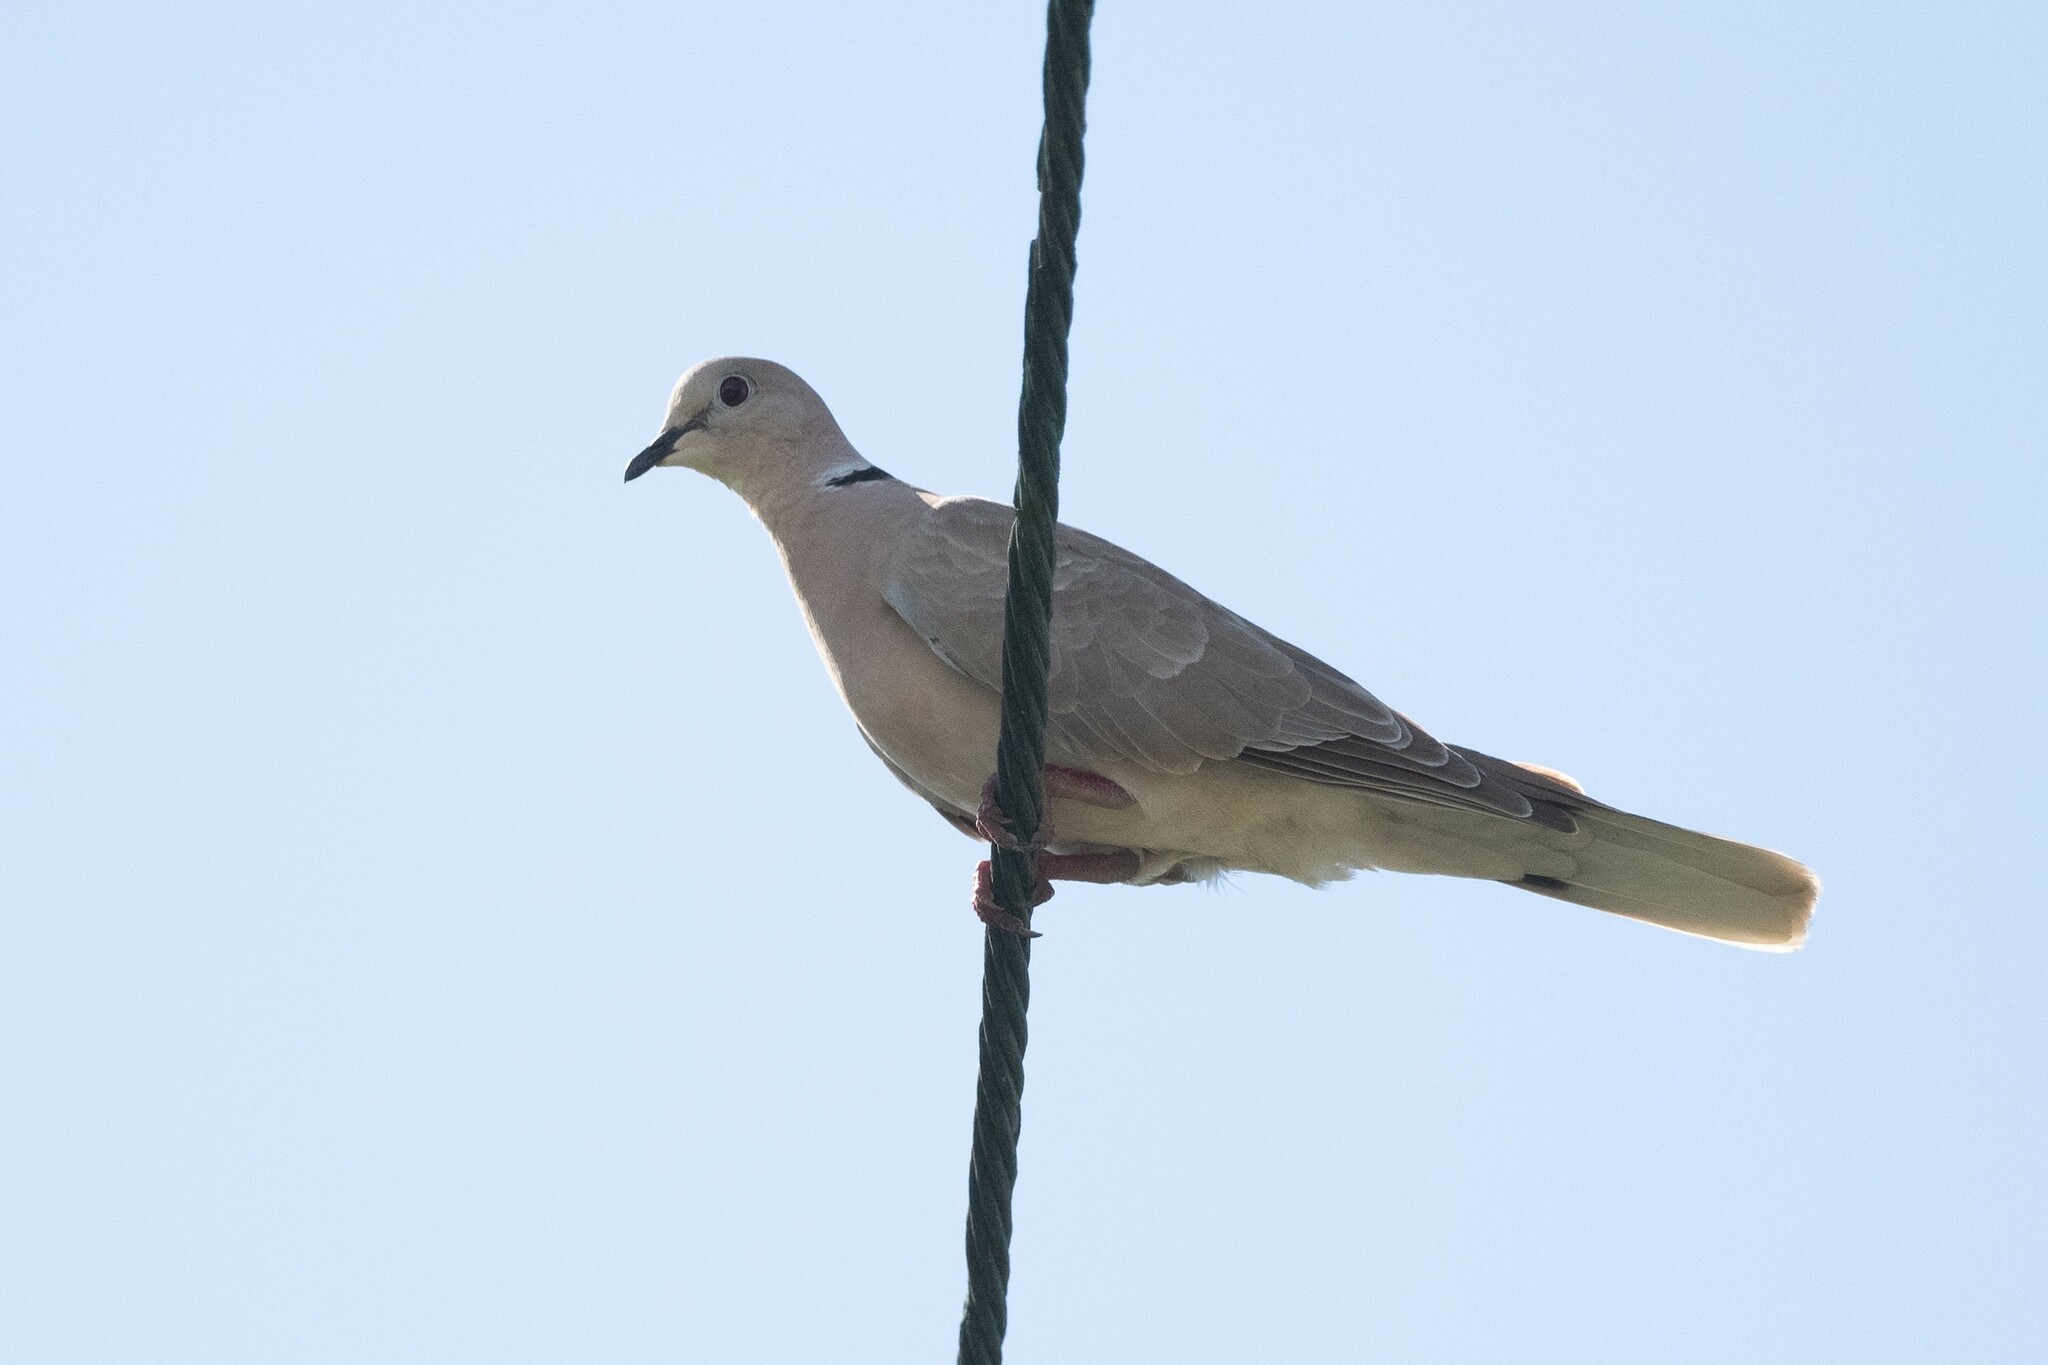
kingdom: Animalia
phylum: Chordata
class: Aves
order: Columbiformes
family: Columbidae
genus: Streptopelia
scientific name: Streptopelia roseogrisea
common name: African collared dove
